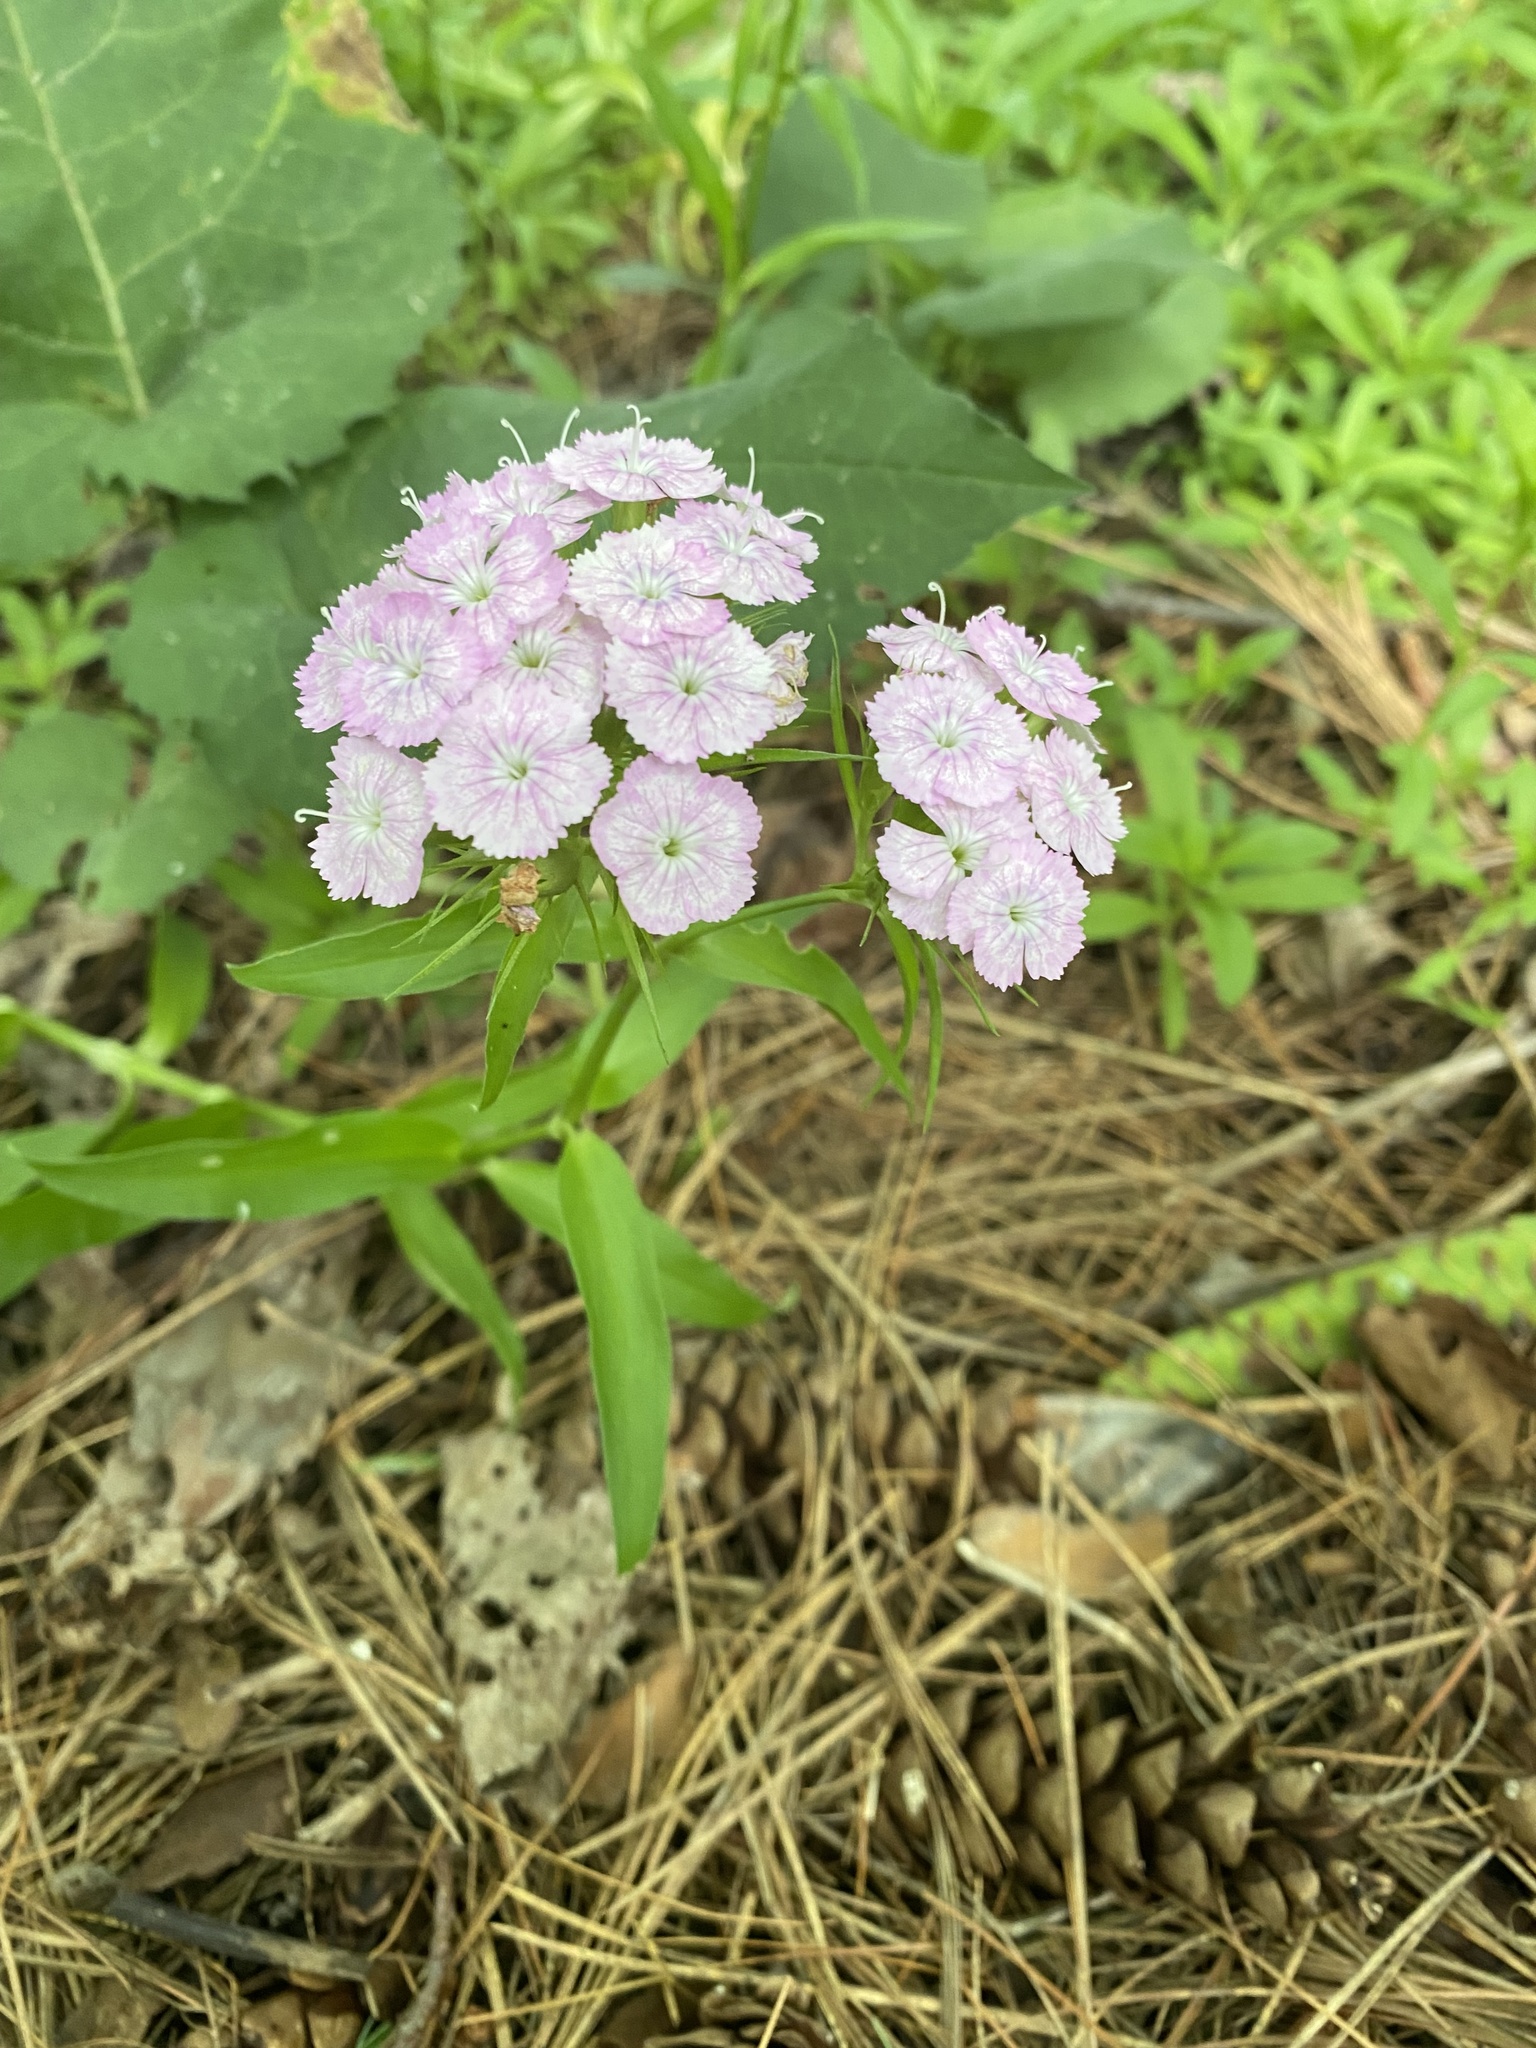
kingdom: Plantae
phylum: Tracheophyta
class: Magnoliopsida
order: Caryophyllales
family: Caryophyllaceae
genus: Dianthus
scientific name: Dianthus barbatus
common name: Sweet-william
